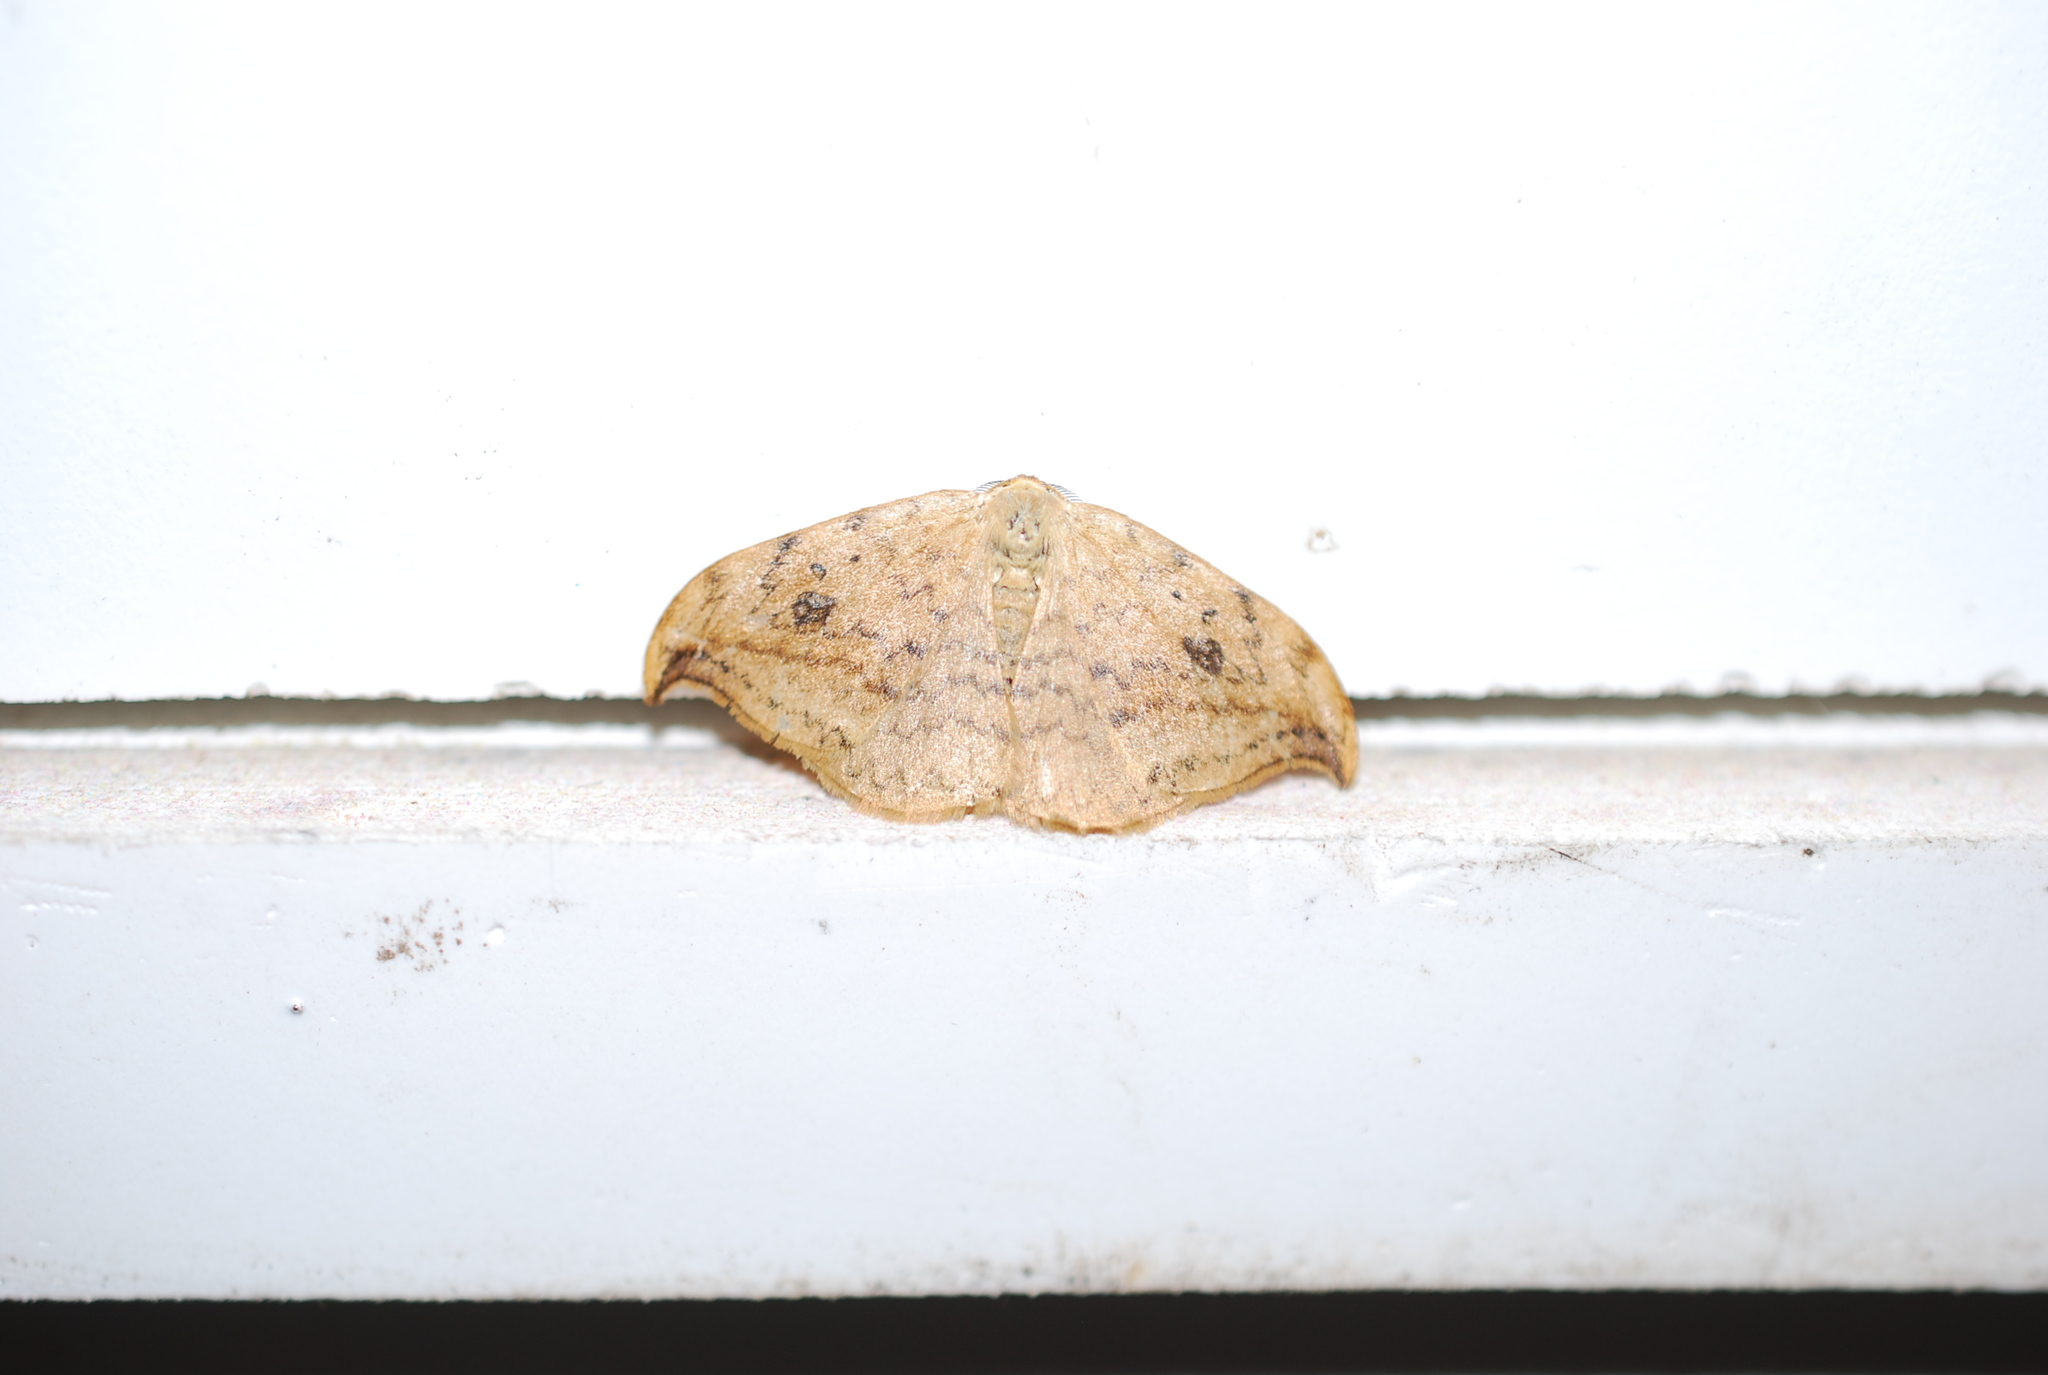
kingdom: Animalia
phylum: Arthropoda
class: Insecta
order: Lepidoptera
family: Drepanidae
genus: Drepana
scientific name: Drepana falcataria
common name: Pebble hook-tip
